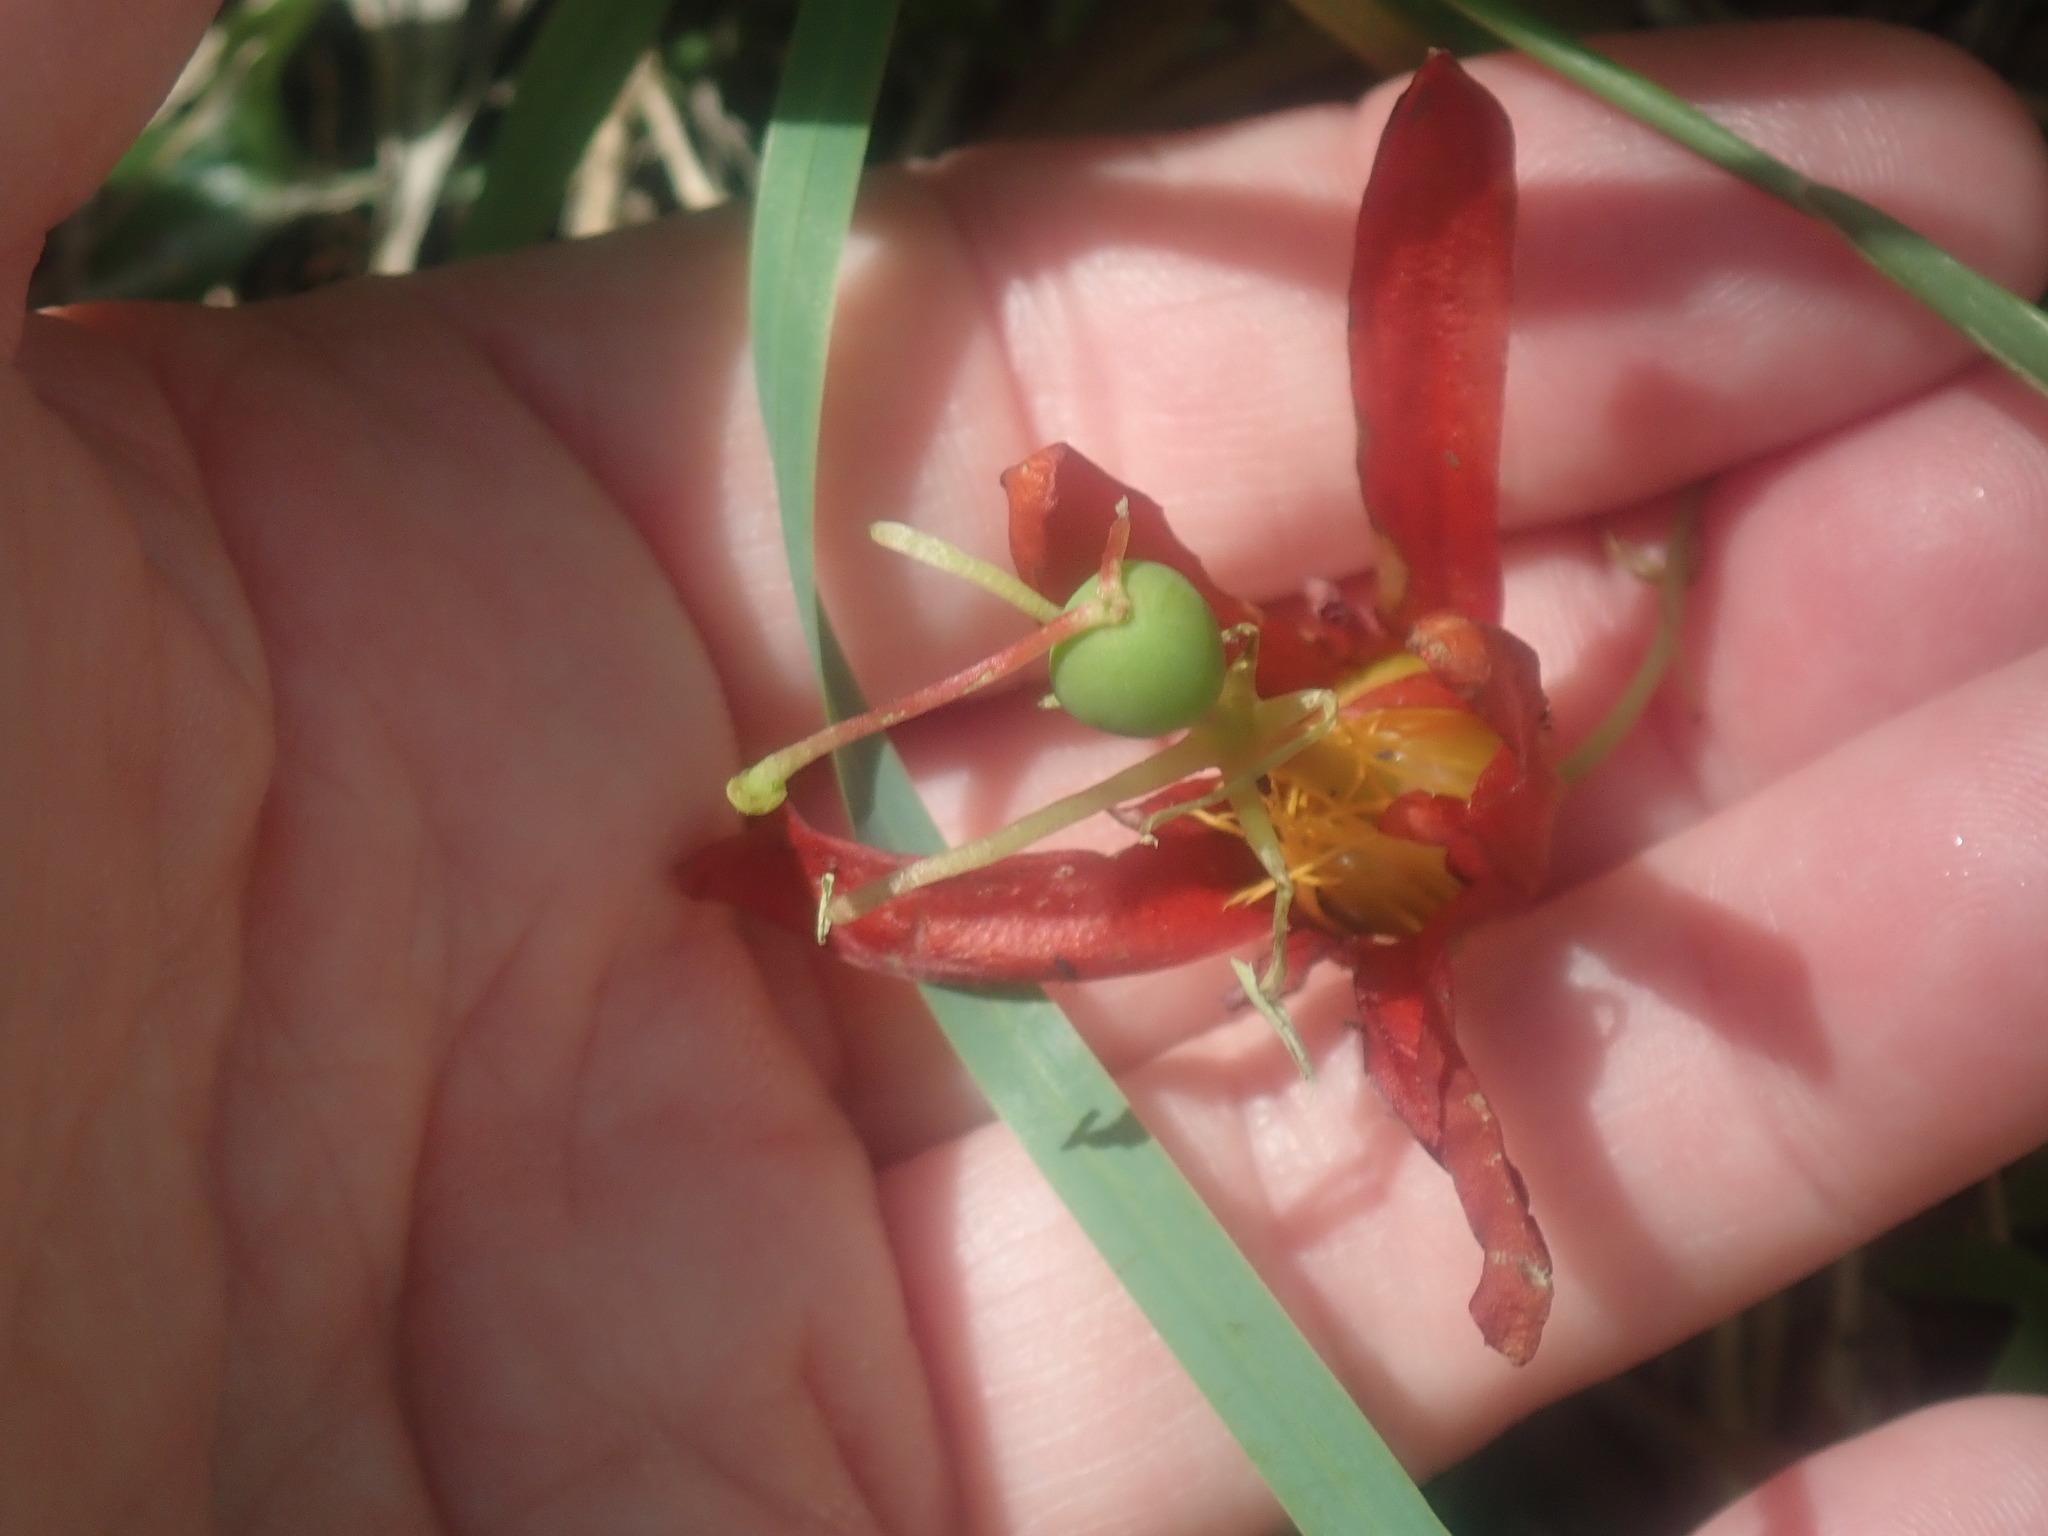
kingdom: Plantae
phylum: Tracheophyta
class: Magnoliopsida
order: Malpighiales
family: Passifloraceae
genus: Passiflora
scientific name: Passiflora cinnabarina
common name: Red passionflower
